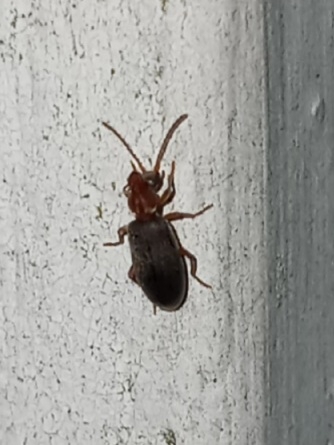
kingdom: Animalia
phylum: Arthropoda
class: Insecta
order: Coleoptera
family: Anthicidae
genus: Notoxus
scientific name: Notoxus murinipennis
